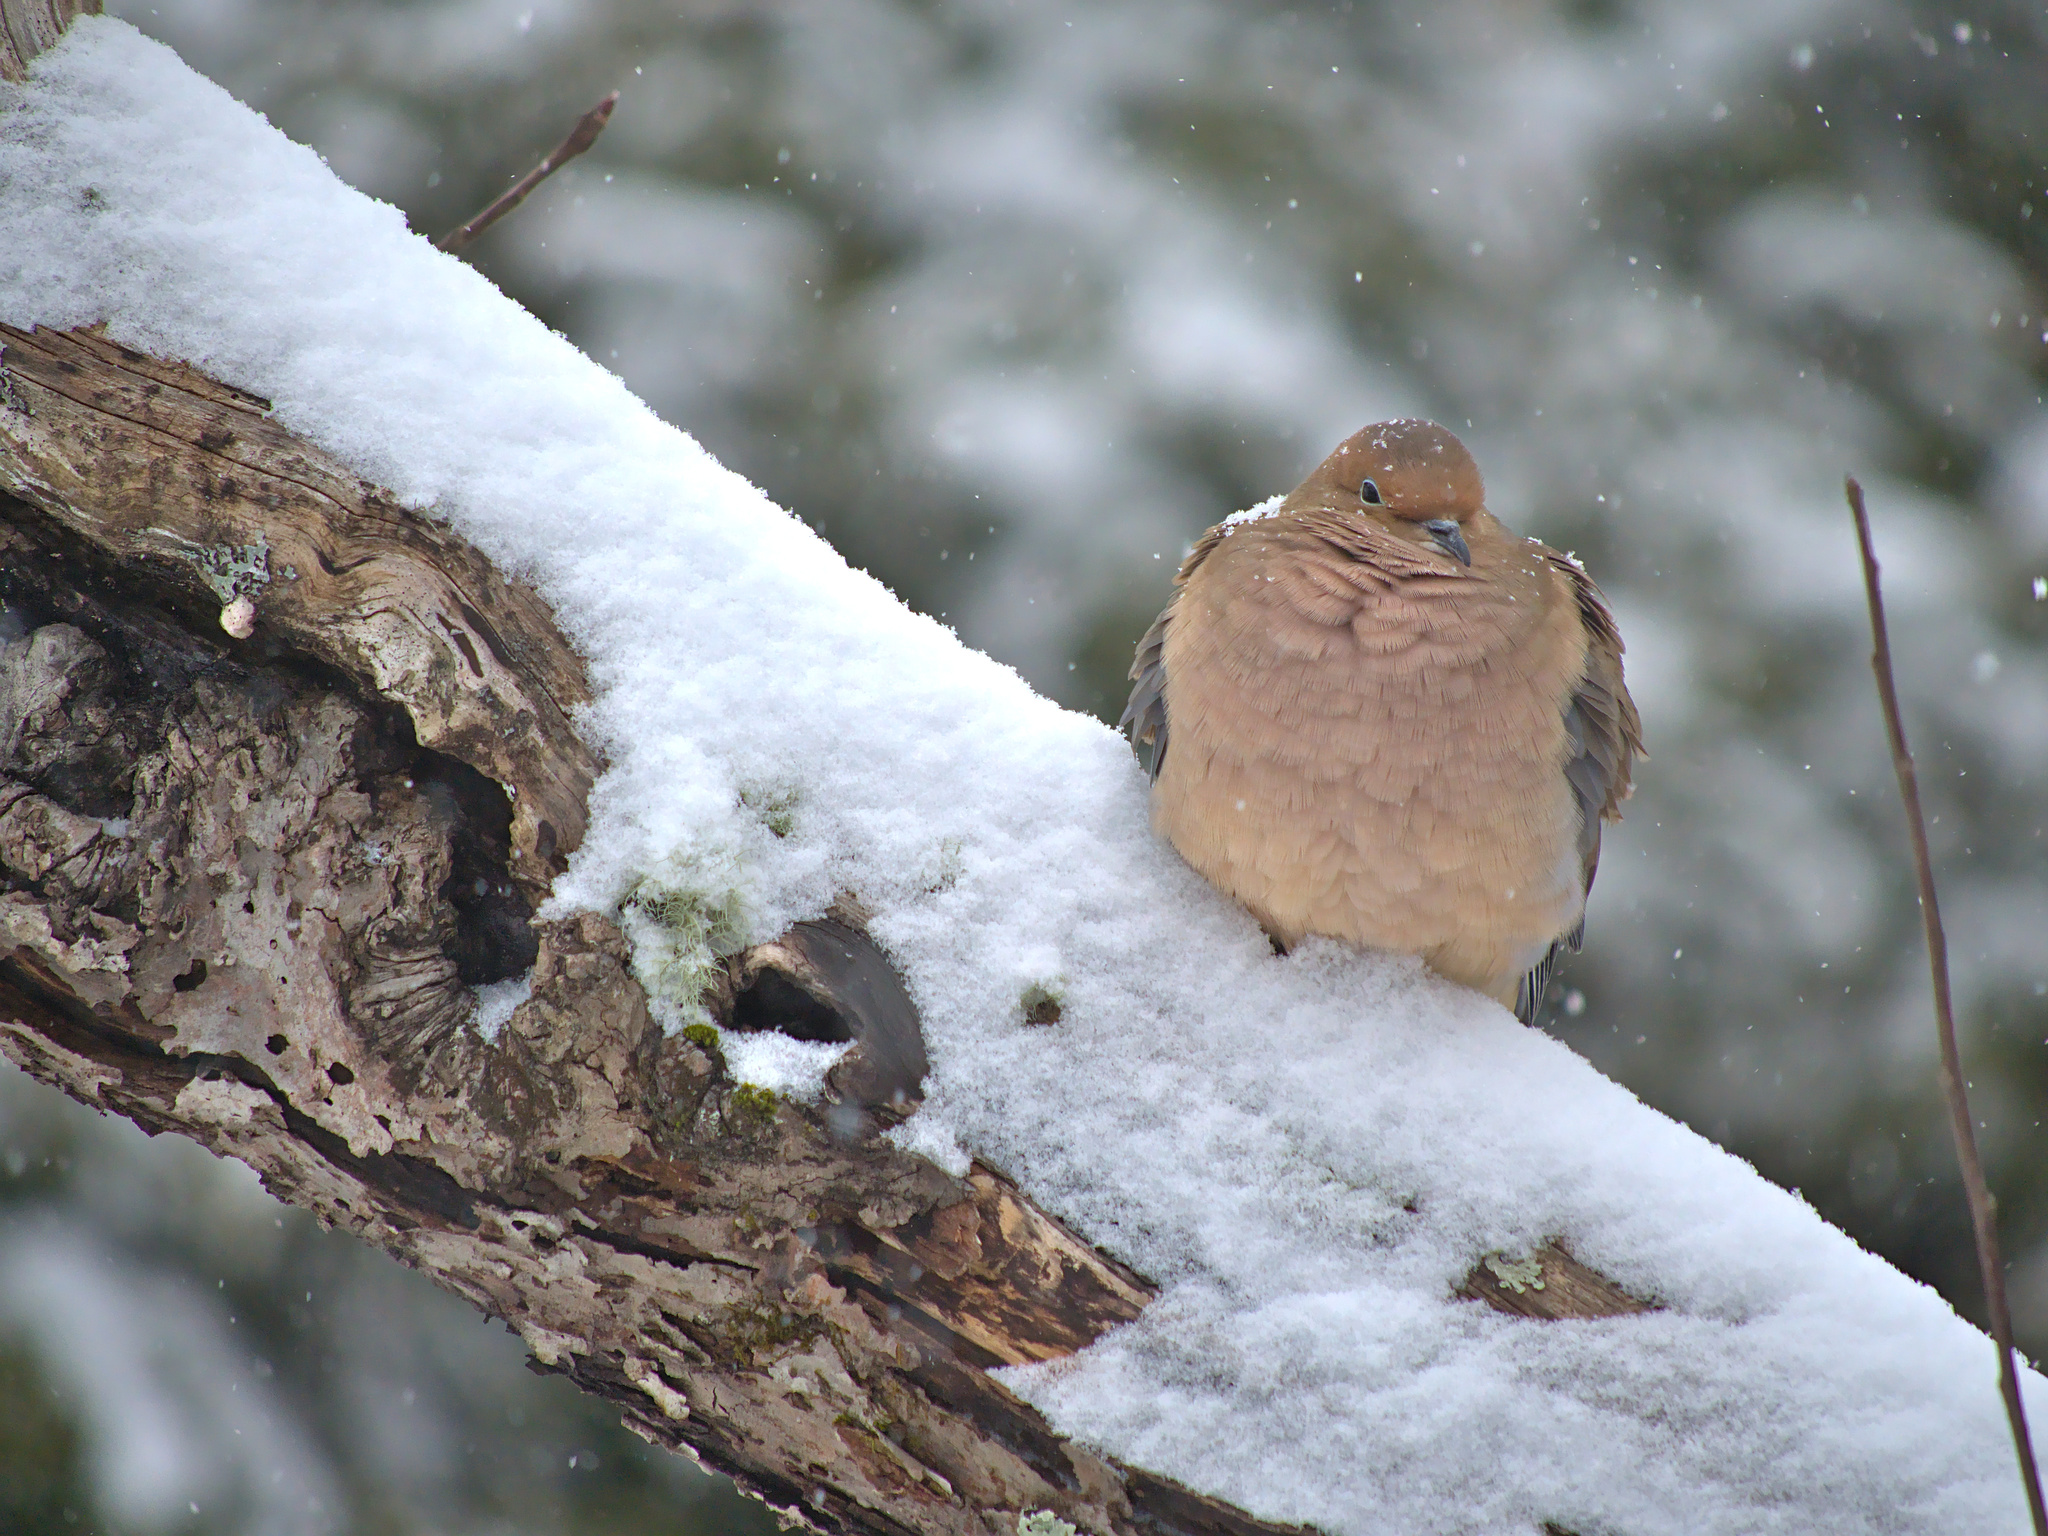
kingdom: Animalia
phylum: Chordata
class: Aves
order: Columbiformes
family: Columbidae
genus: Zenaida
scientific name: Zenaida macroura
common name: Mourning dove
